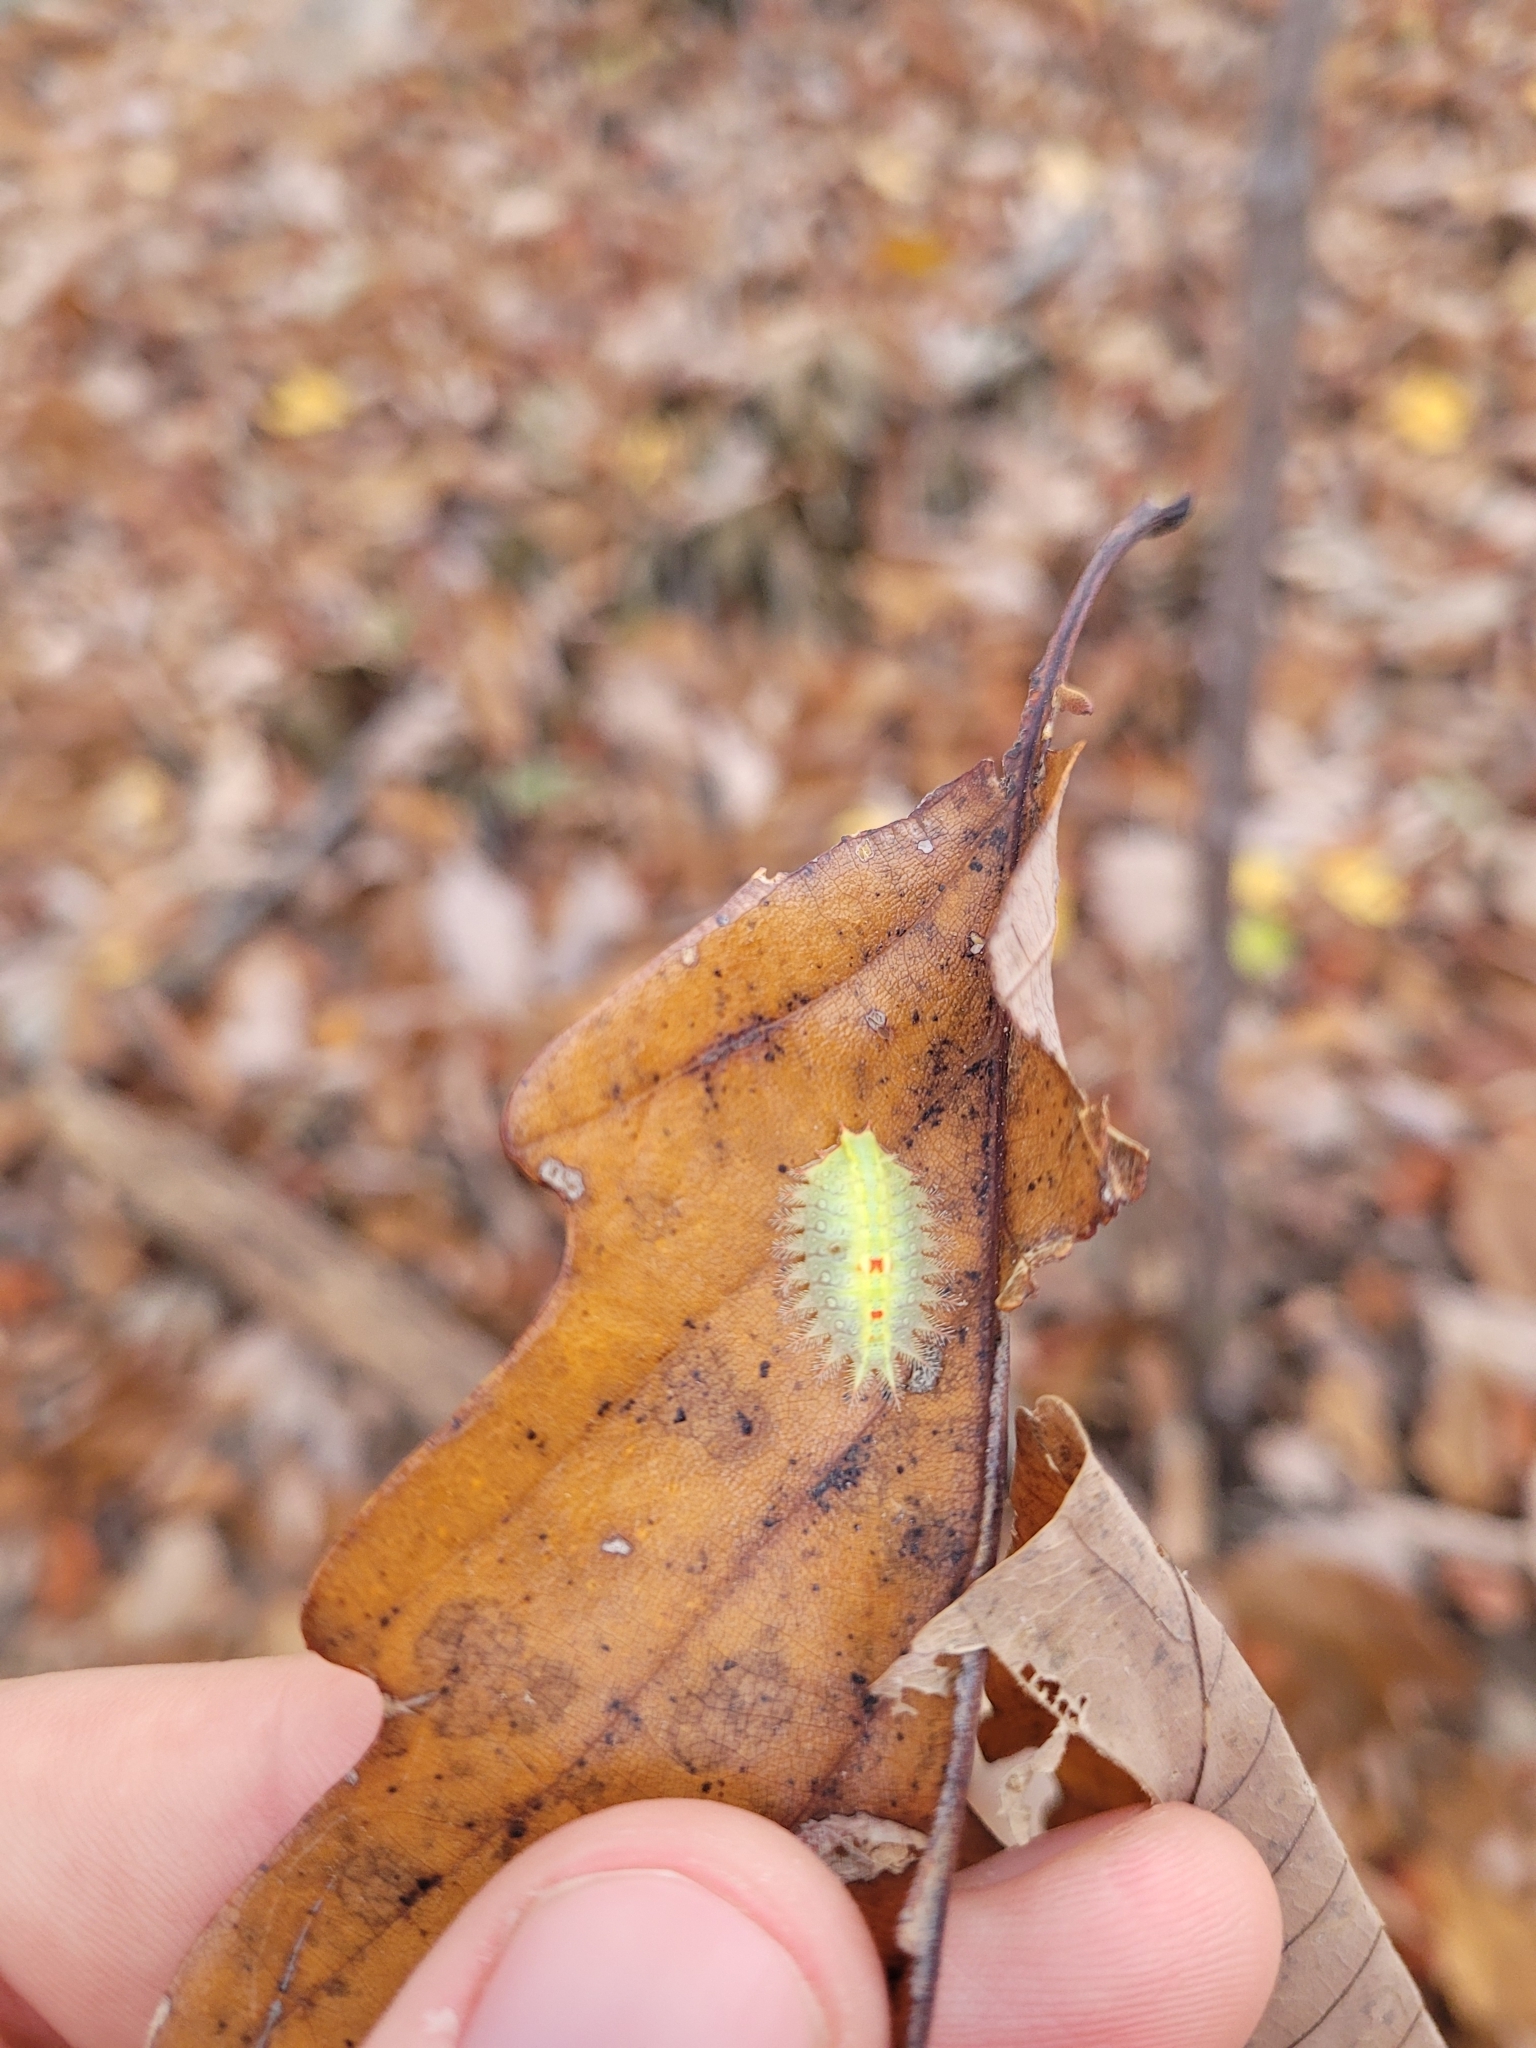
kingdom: Animalia
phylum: Arthropoda
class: Insecta
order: Lepidoptera
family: Limacodidae
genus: Isa
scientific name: Isa textula
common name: Crowned slug moth
